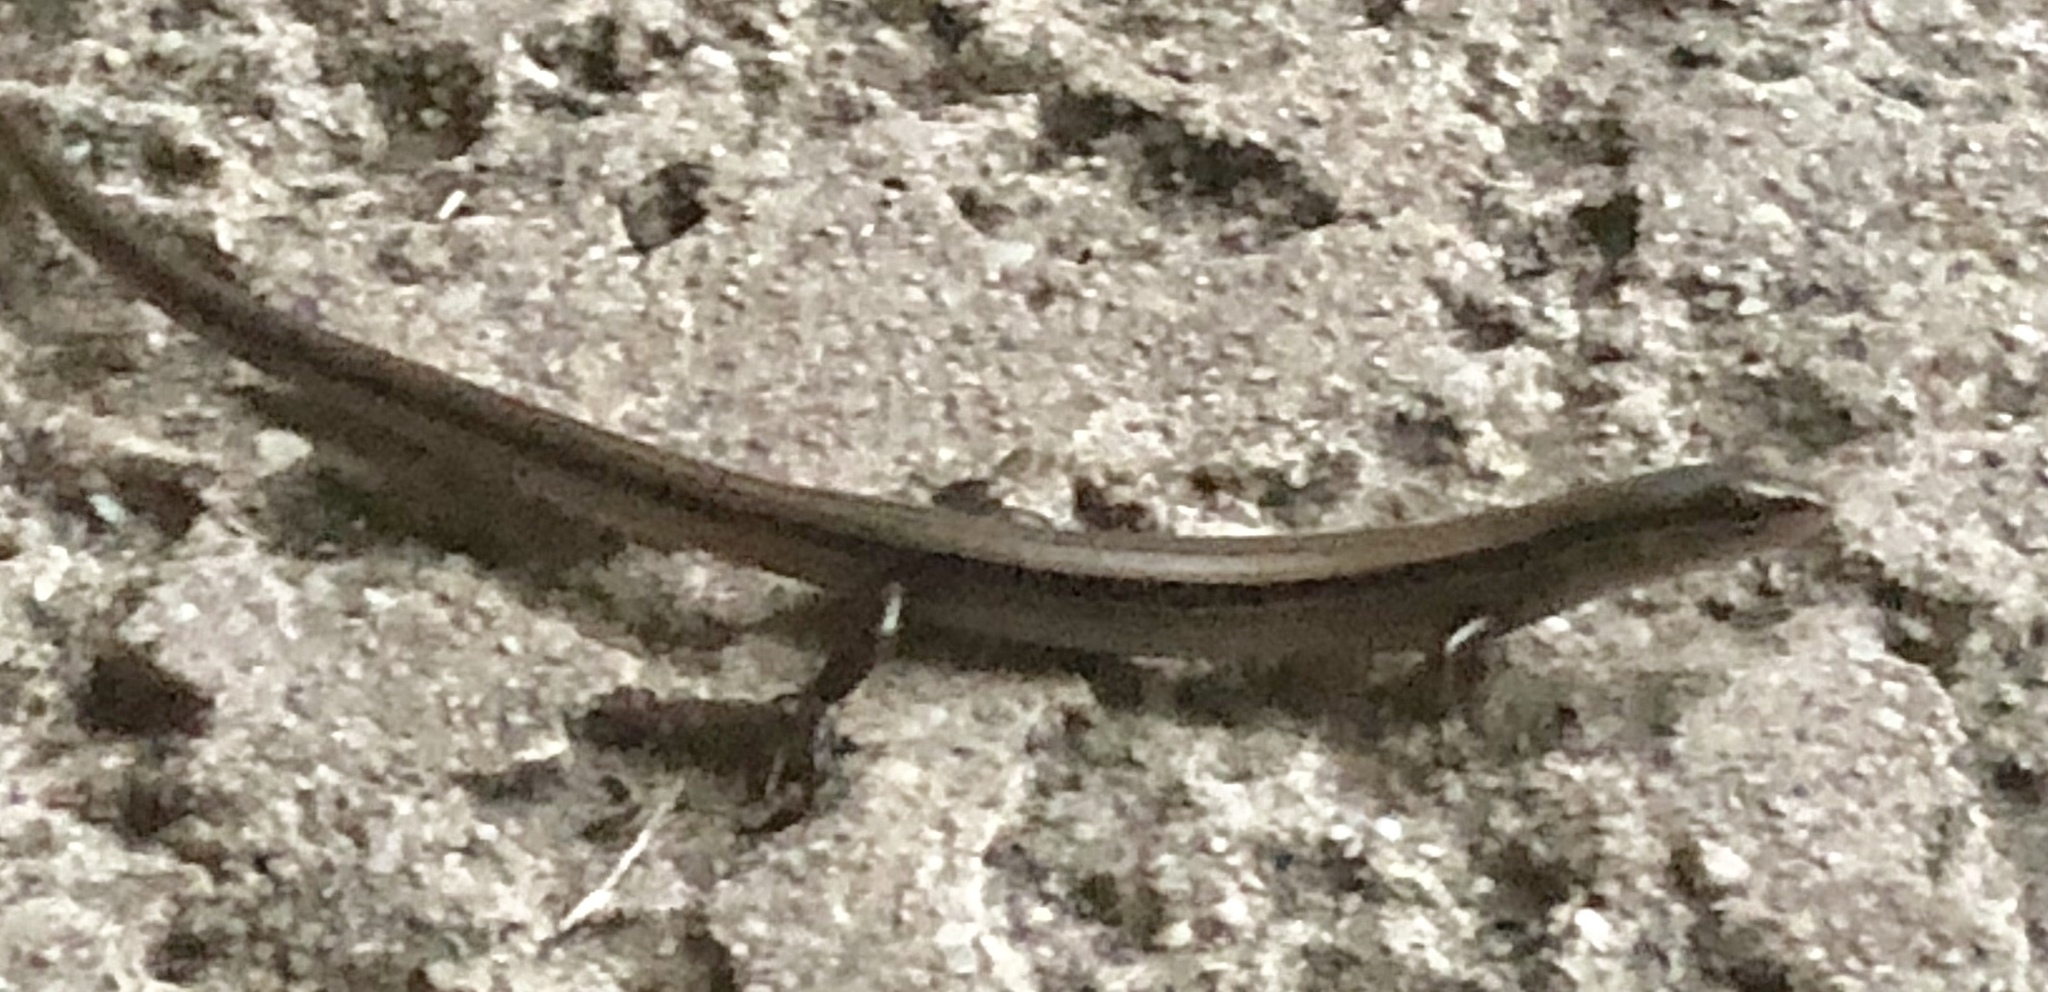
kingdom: Animalia
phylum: Chordata
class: Squamata
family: Scincidae
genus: Scincella
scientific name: Scincella lateralis
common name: Ground skink
